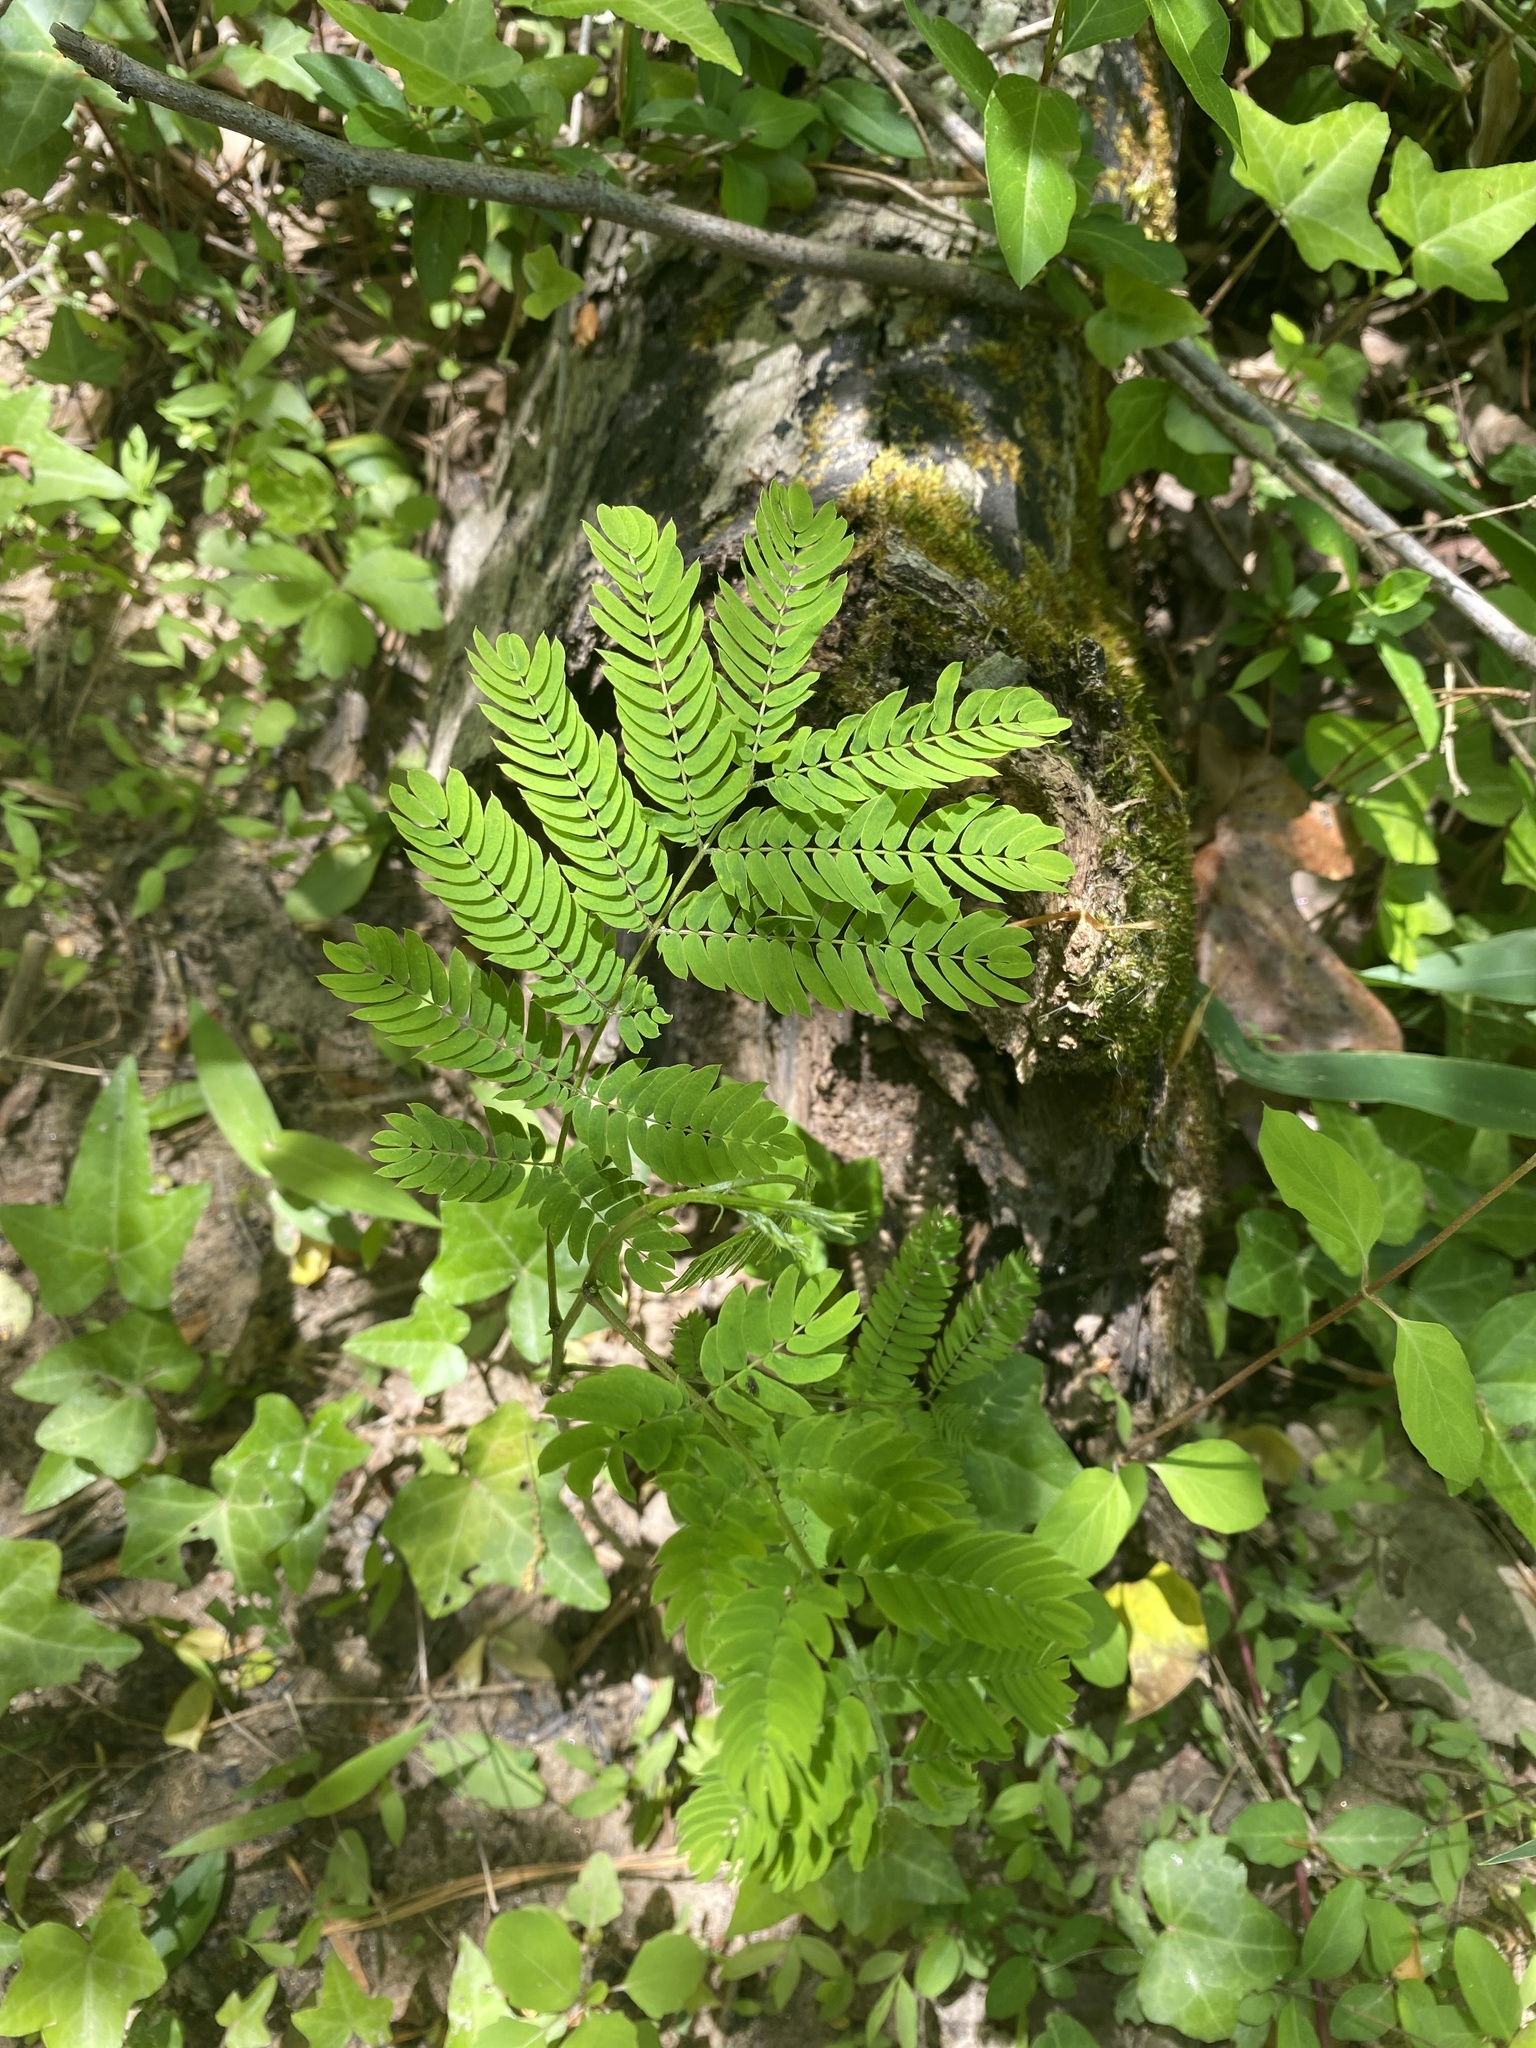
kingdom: Plantae
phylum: Tracheophyta
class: Magnoliopsida
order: Fabales
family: Fabaceae
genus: Albizia
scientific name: Albizia julibrissin
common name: Silktree
